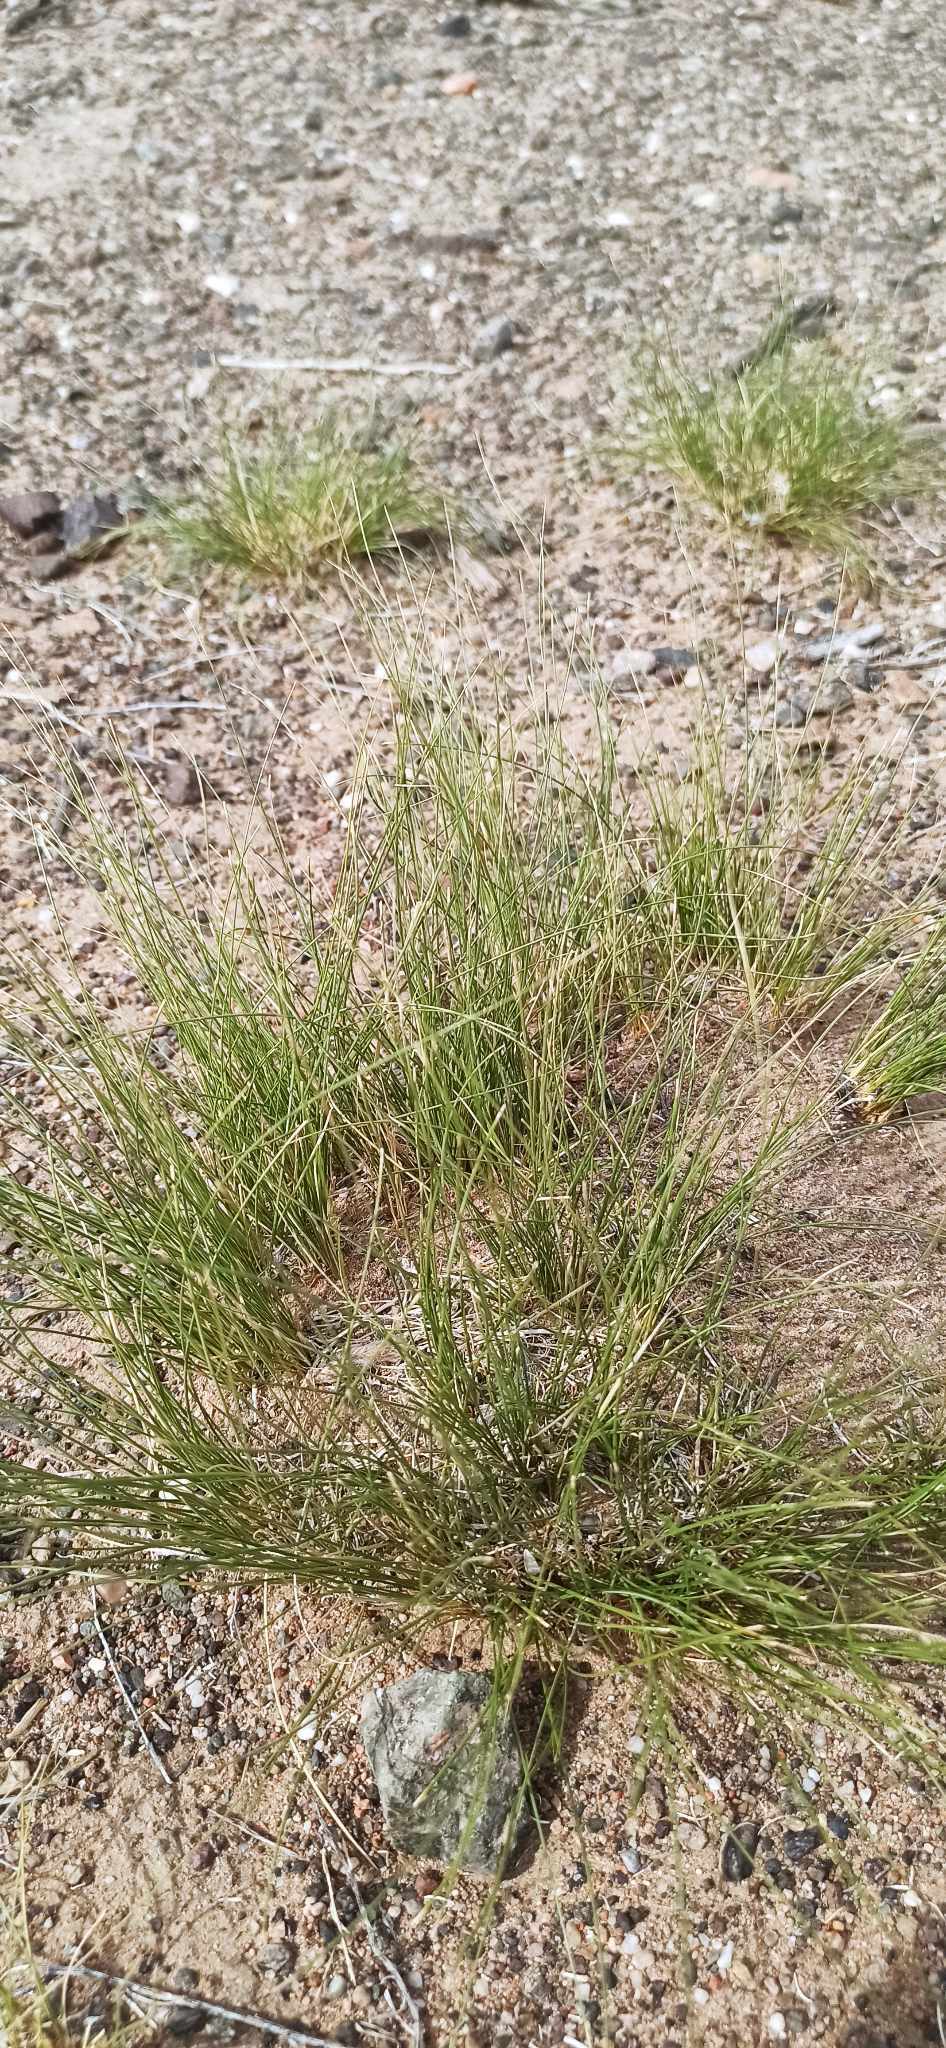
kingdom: Plantae
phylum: Tracheophyta
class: Liliopsida
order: Poales
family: Poaceae
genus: Stipa
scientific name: Stipa glareosa
